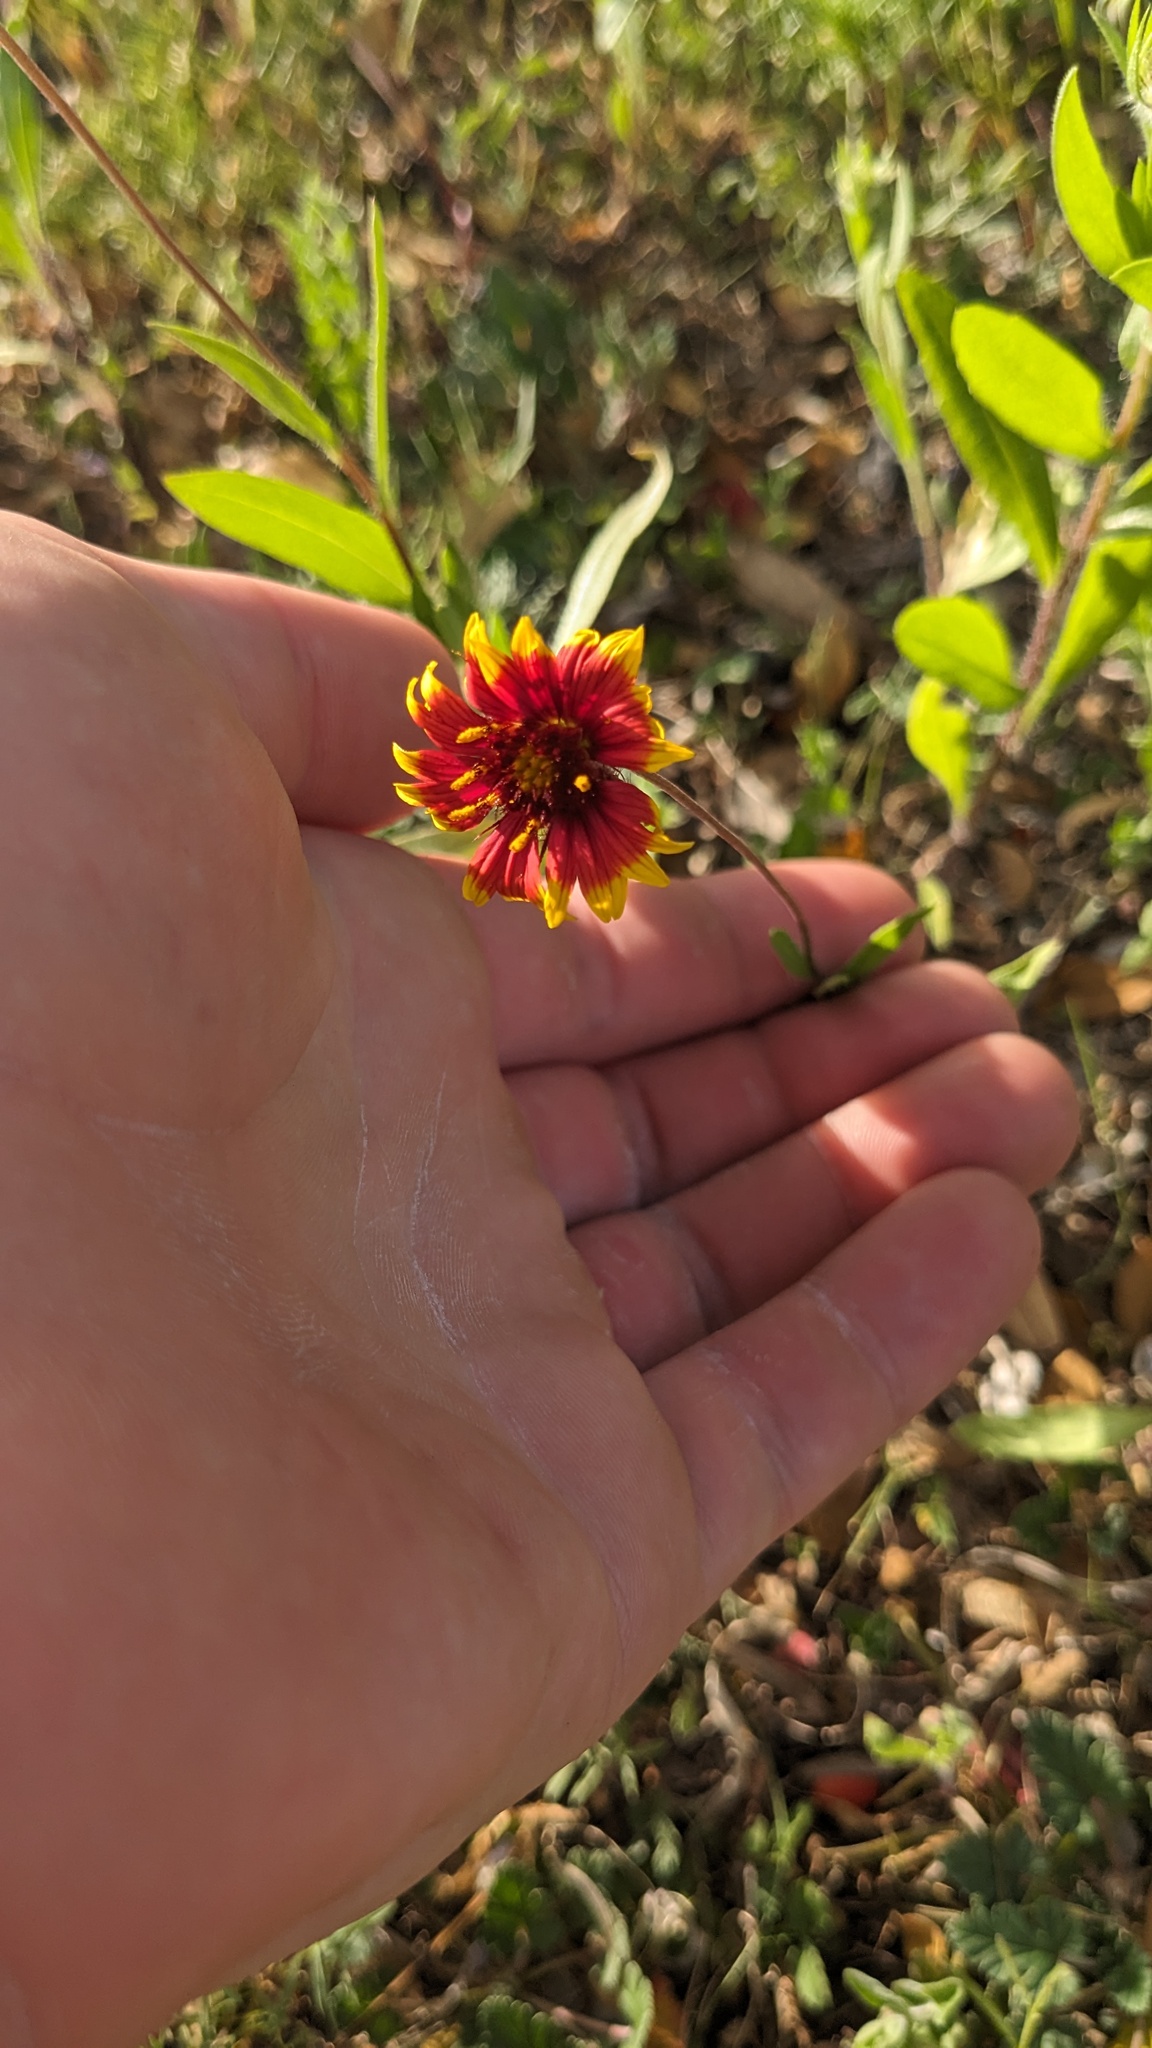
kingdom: Plantae
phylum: Tracheophyta
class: Magnoliopsida
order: Asterales
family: Asteraceae
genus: Gaillardia
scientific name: Gaillardia pulchella
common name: Firewheel
